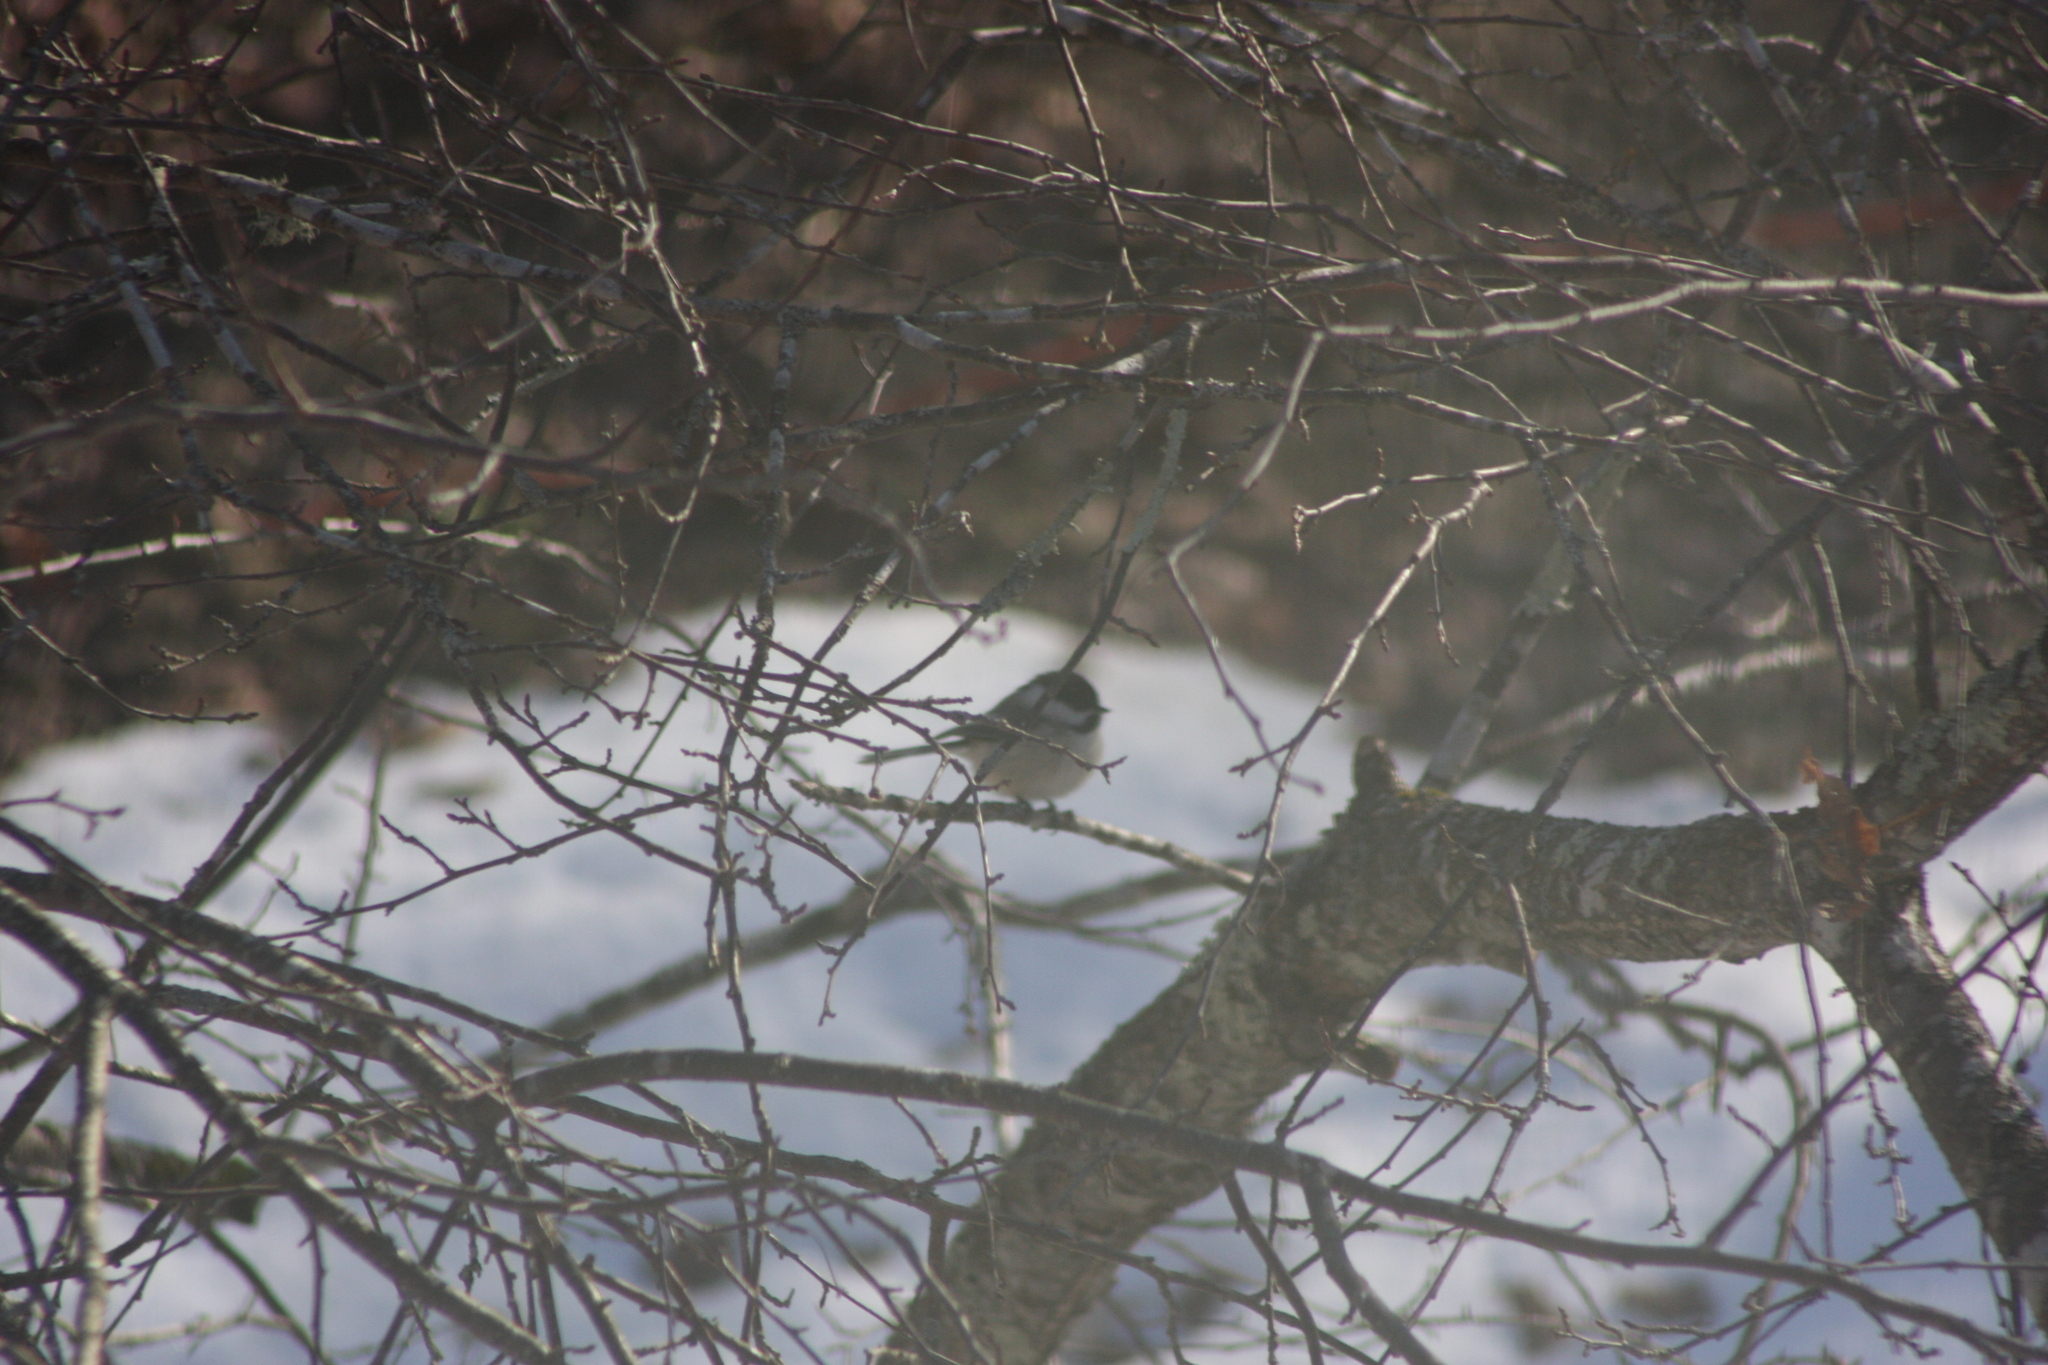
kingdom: Animalia
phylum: Chordata
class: Aves
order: Passeriformes
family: Paridae
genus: Poecile
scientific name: Poecile atricapillus
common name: Black-capped chickadee
